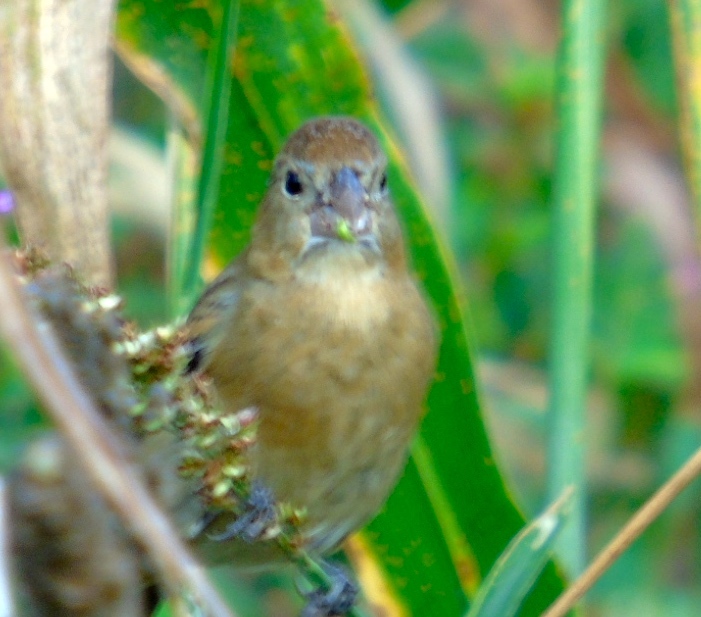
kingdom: Animalia
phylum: Chordata
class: Aves
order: Passeriformes
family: Cardinalidae
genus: Passerina
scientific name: Passerina amoena
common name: Lazuli bunting
